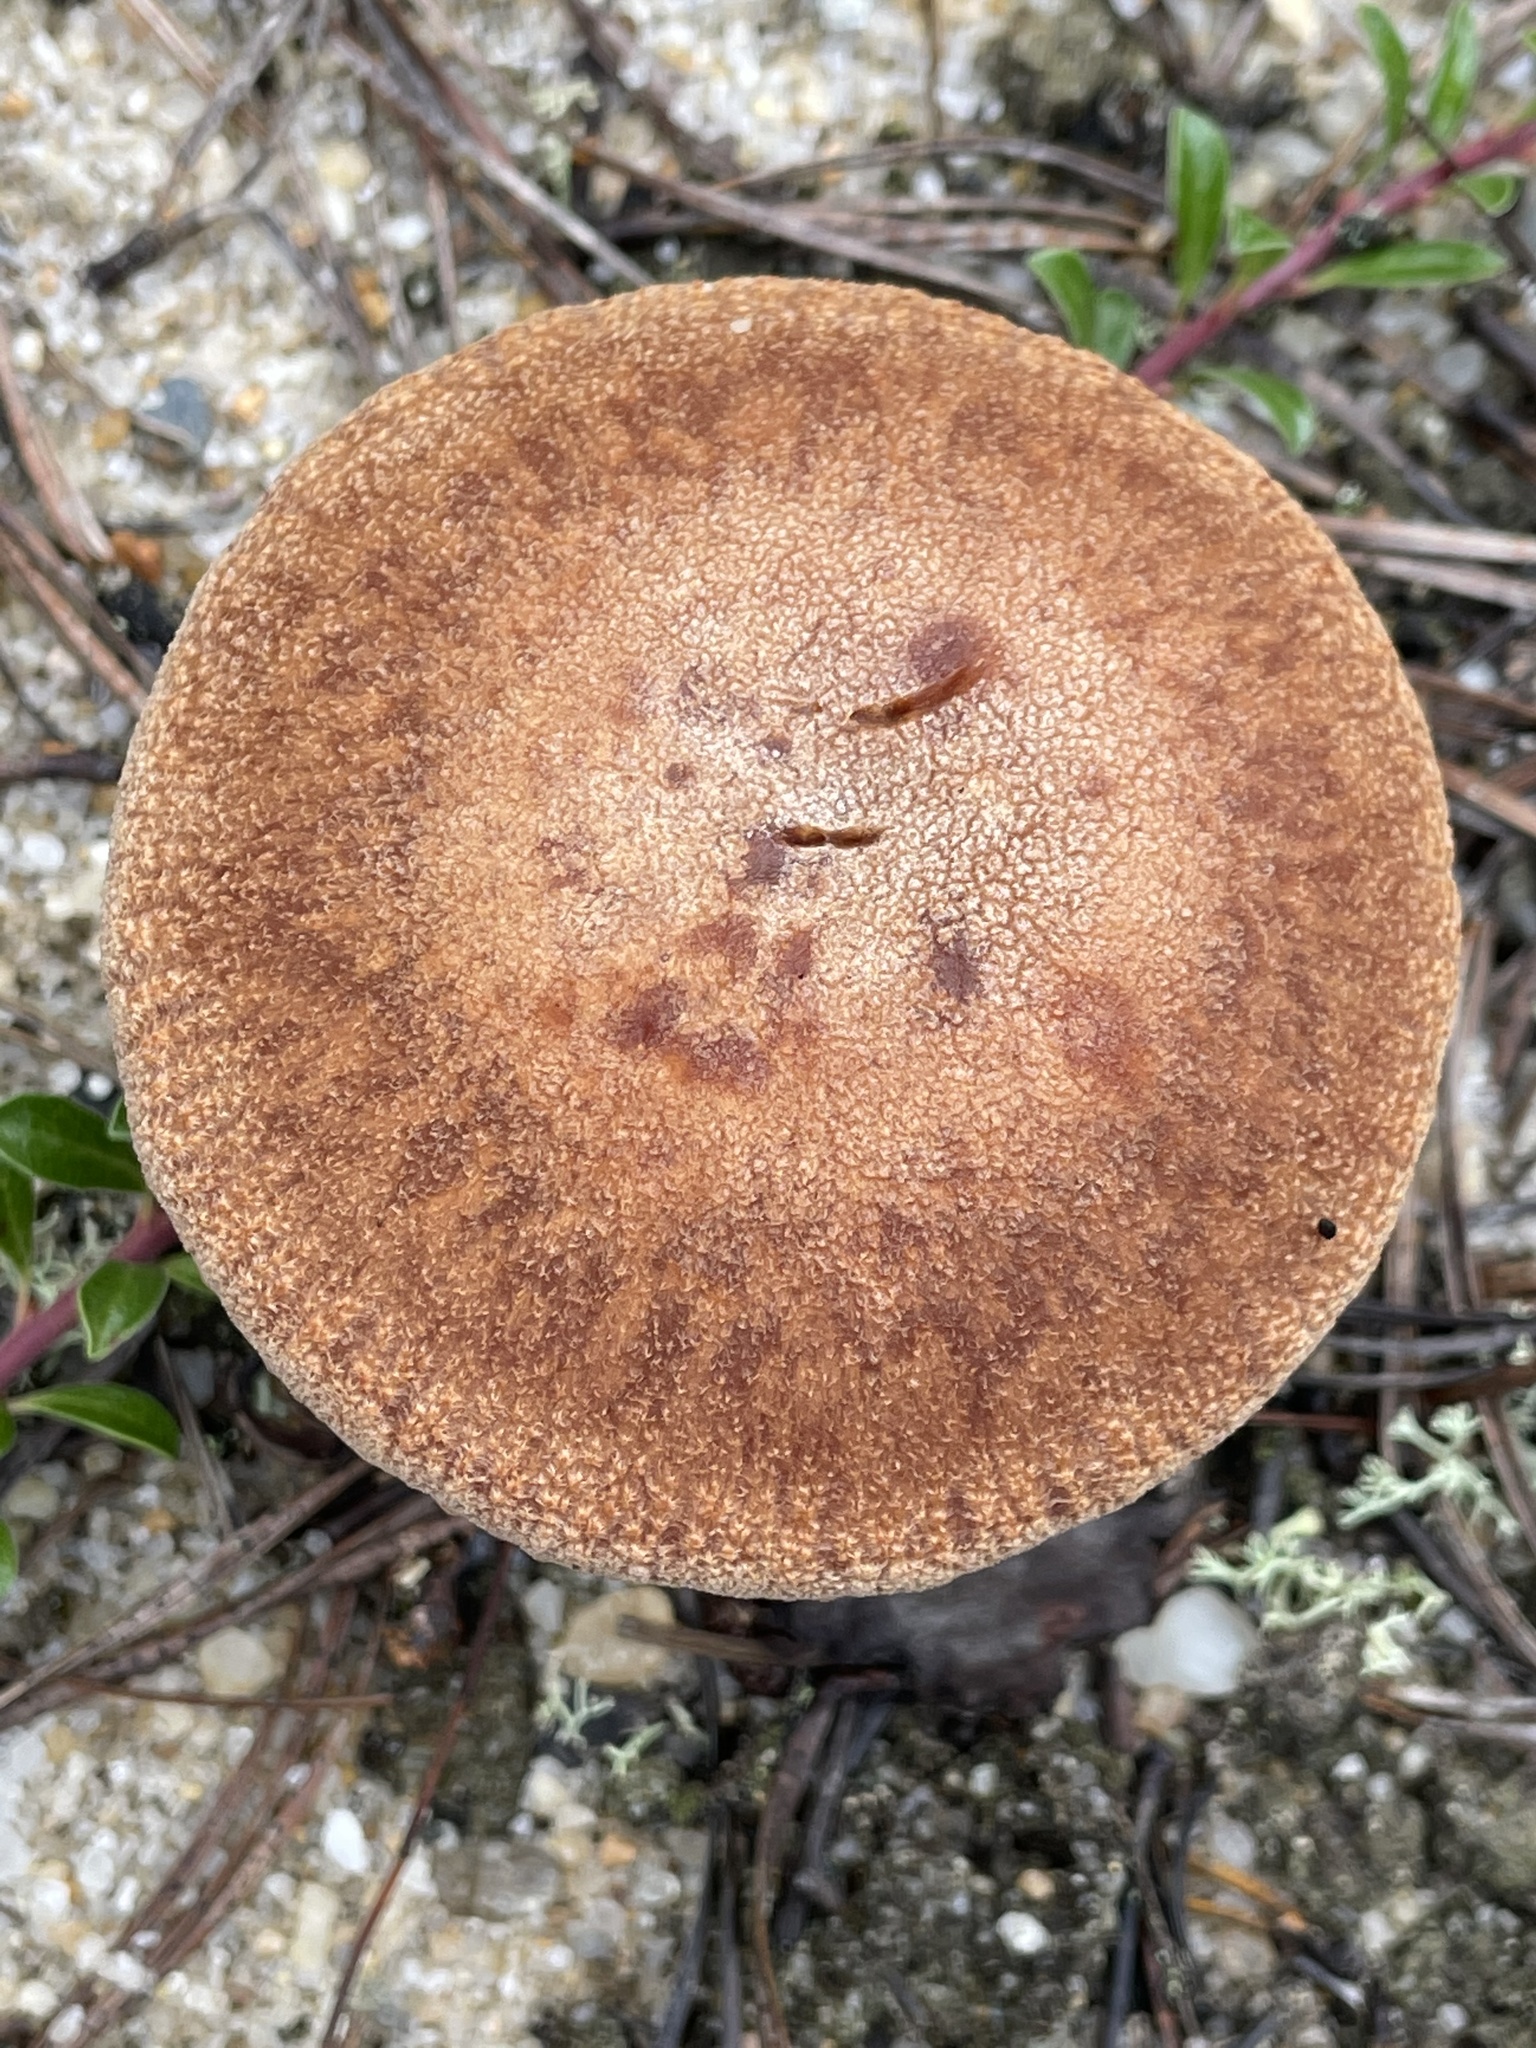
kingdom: Fungi
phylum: Basidiomycota
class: Agaricomycetes
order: Agaricales
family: Hydnangiaceae
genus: Laccaria
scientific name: Laccaria trullissata
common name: Sandy laccaria
